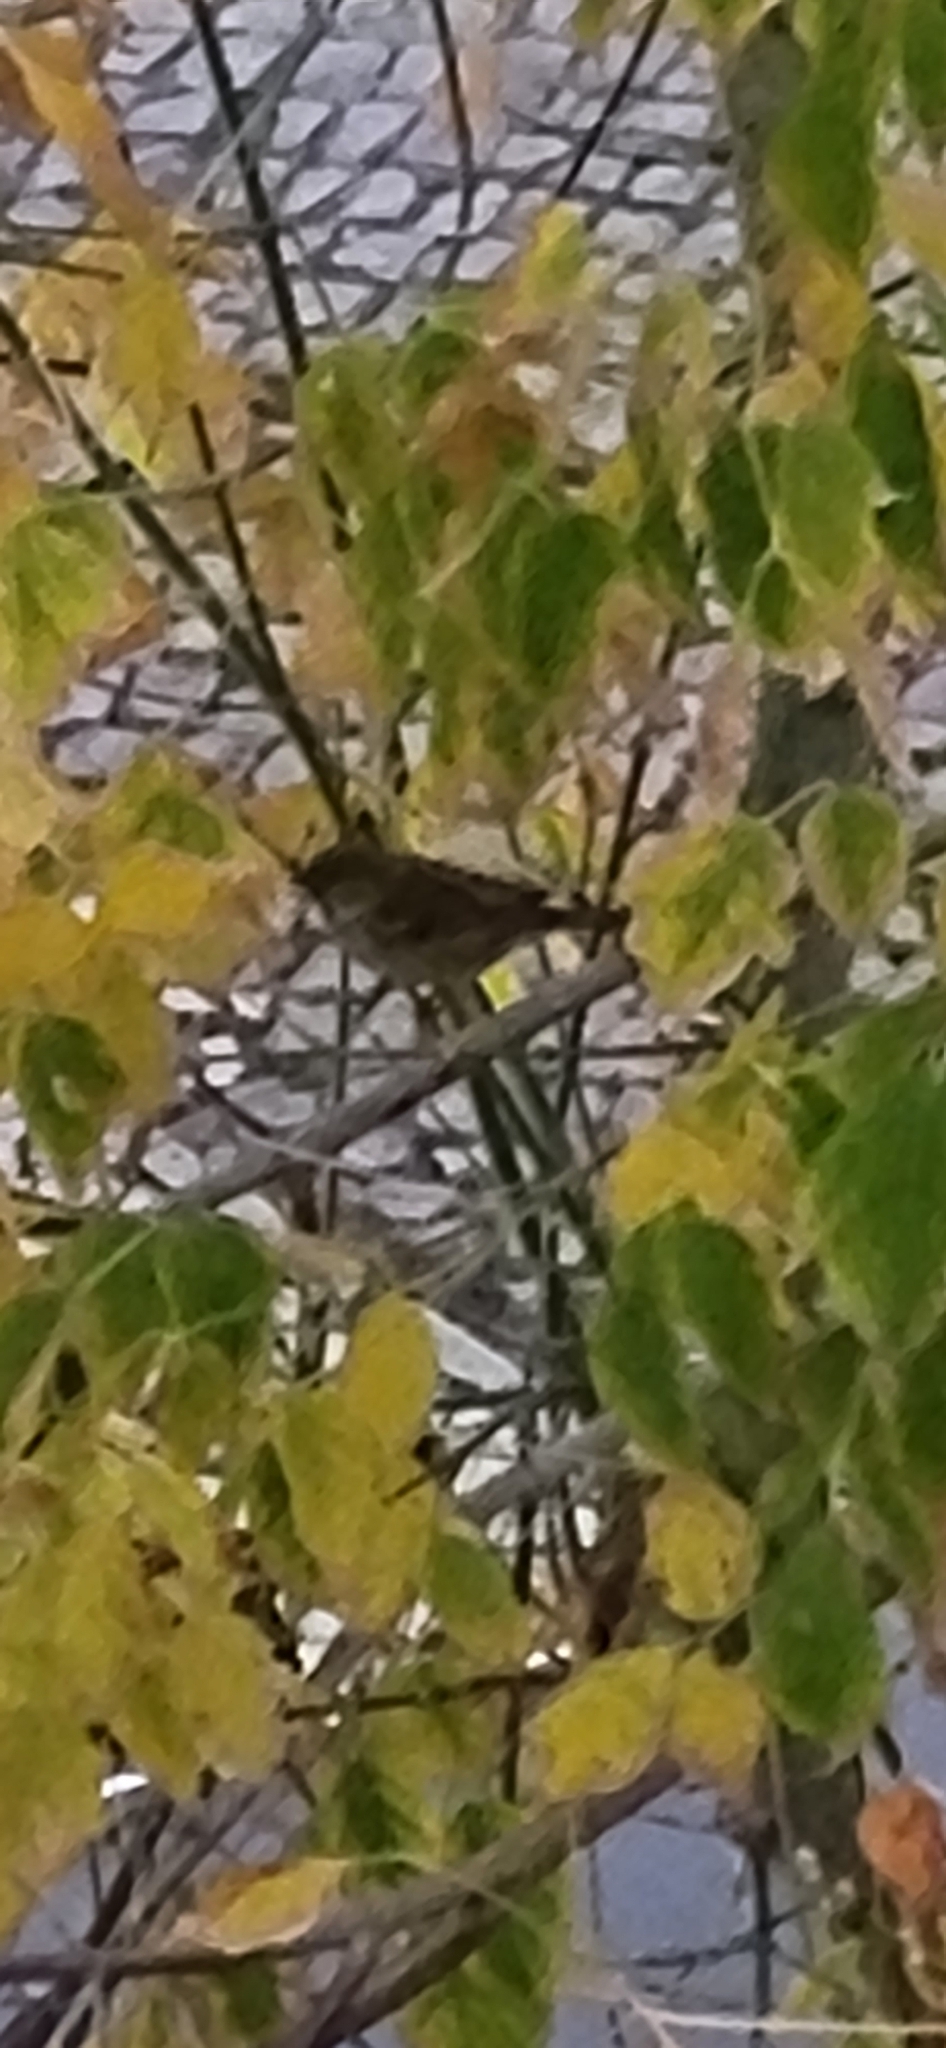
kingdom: Animalia
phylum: Chordata
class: Aves
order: Passeriformes
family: Passeridae
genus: Passer
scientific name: Passer domesticus
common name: House sparrow
